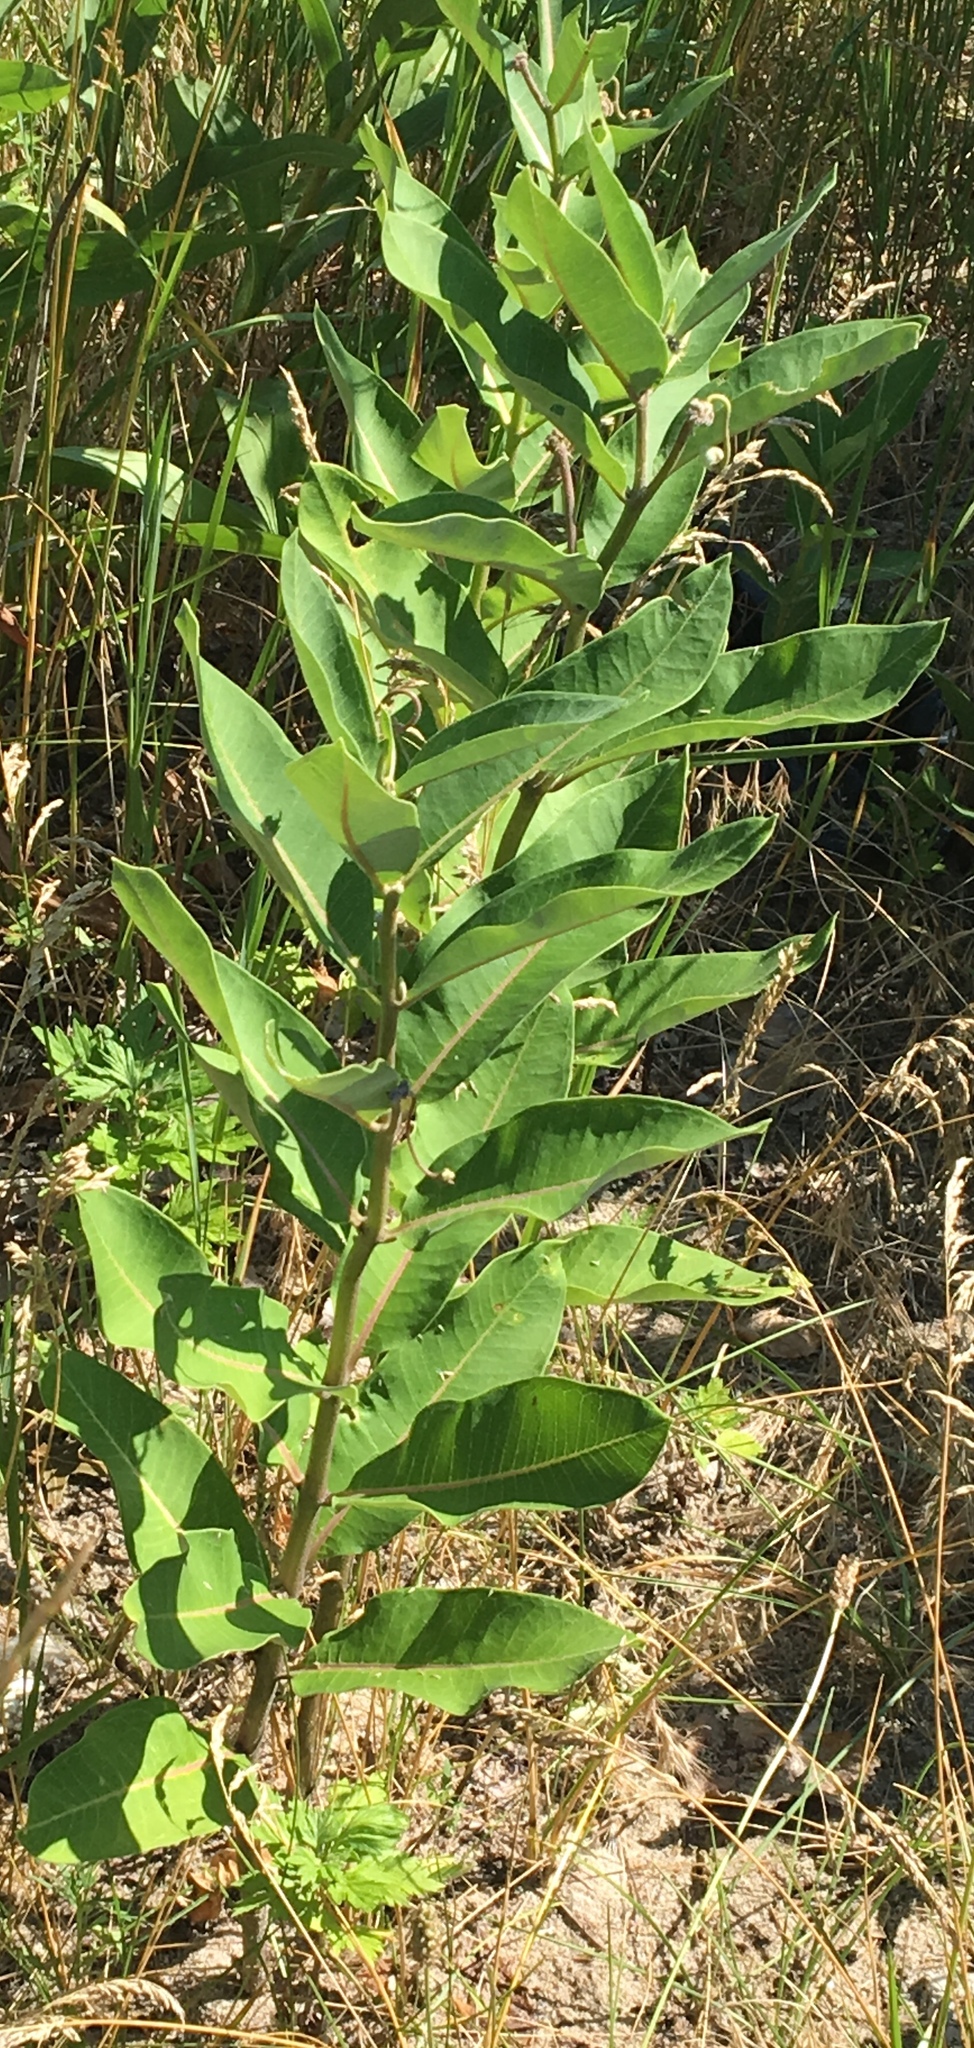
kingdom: Plantae
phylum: Tracheophyta
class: Magnoliopsida
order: Gentianales
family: Apocynaceae
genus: Asclepias
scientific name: Asclepias syriaca
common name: Common milkweed
